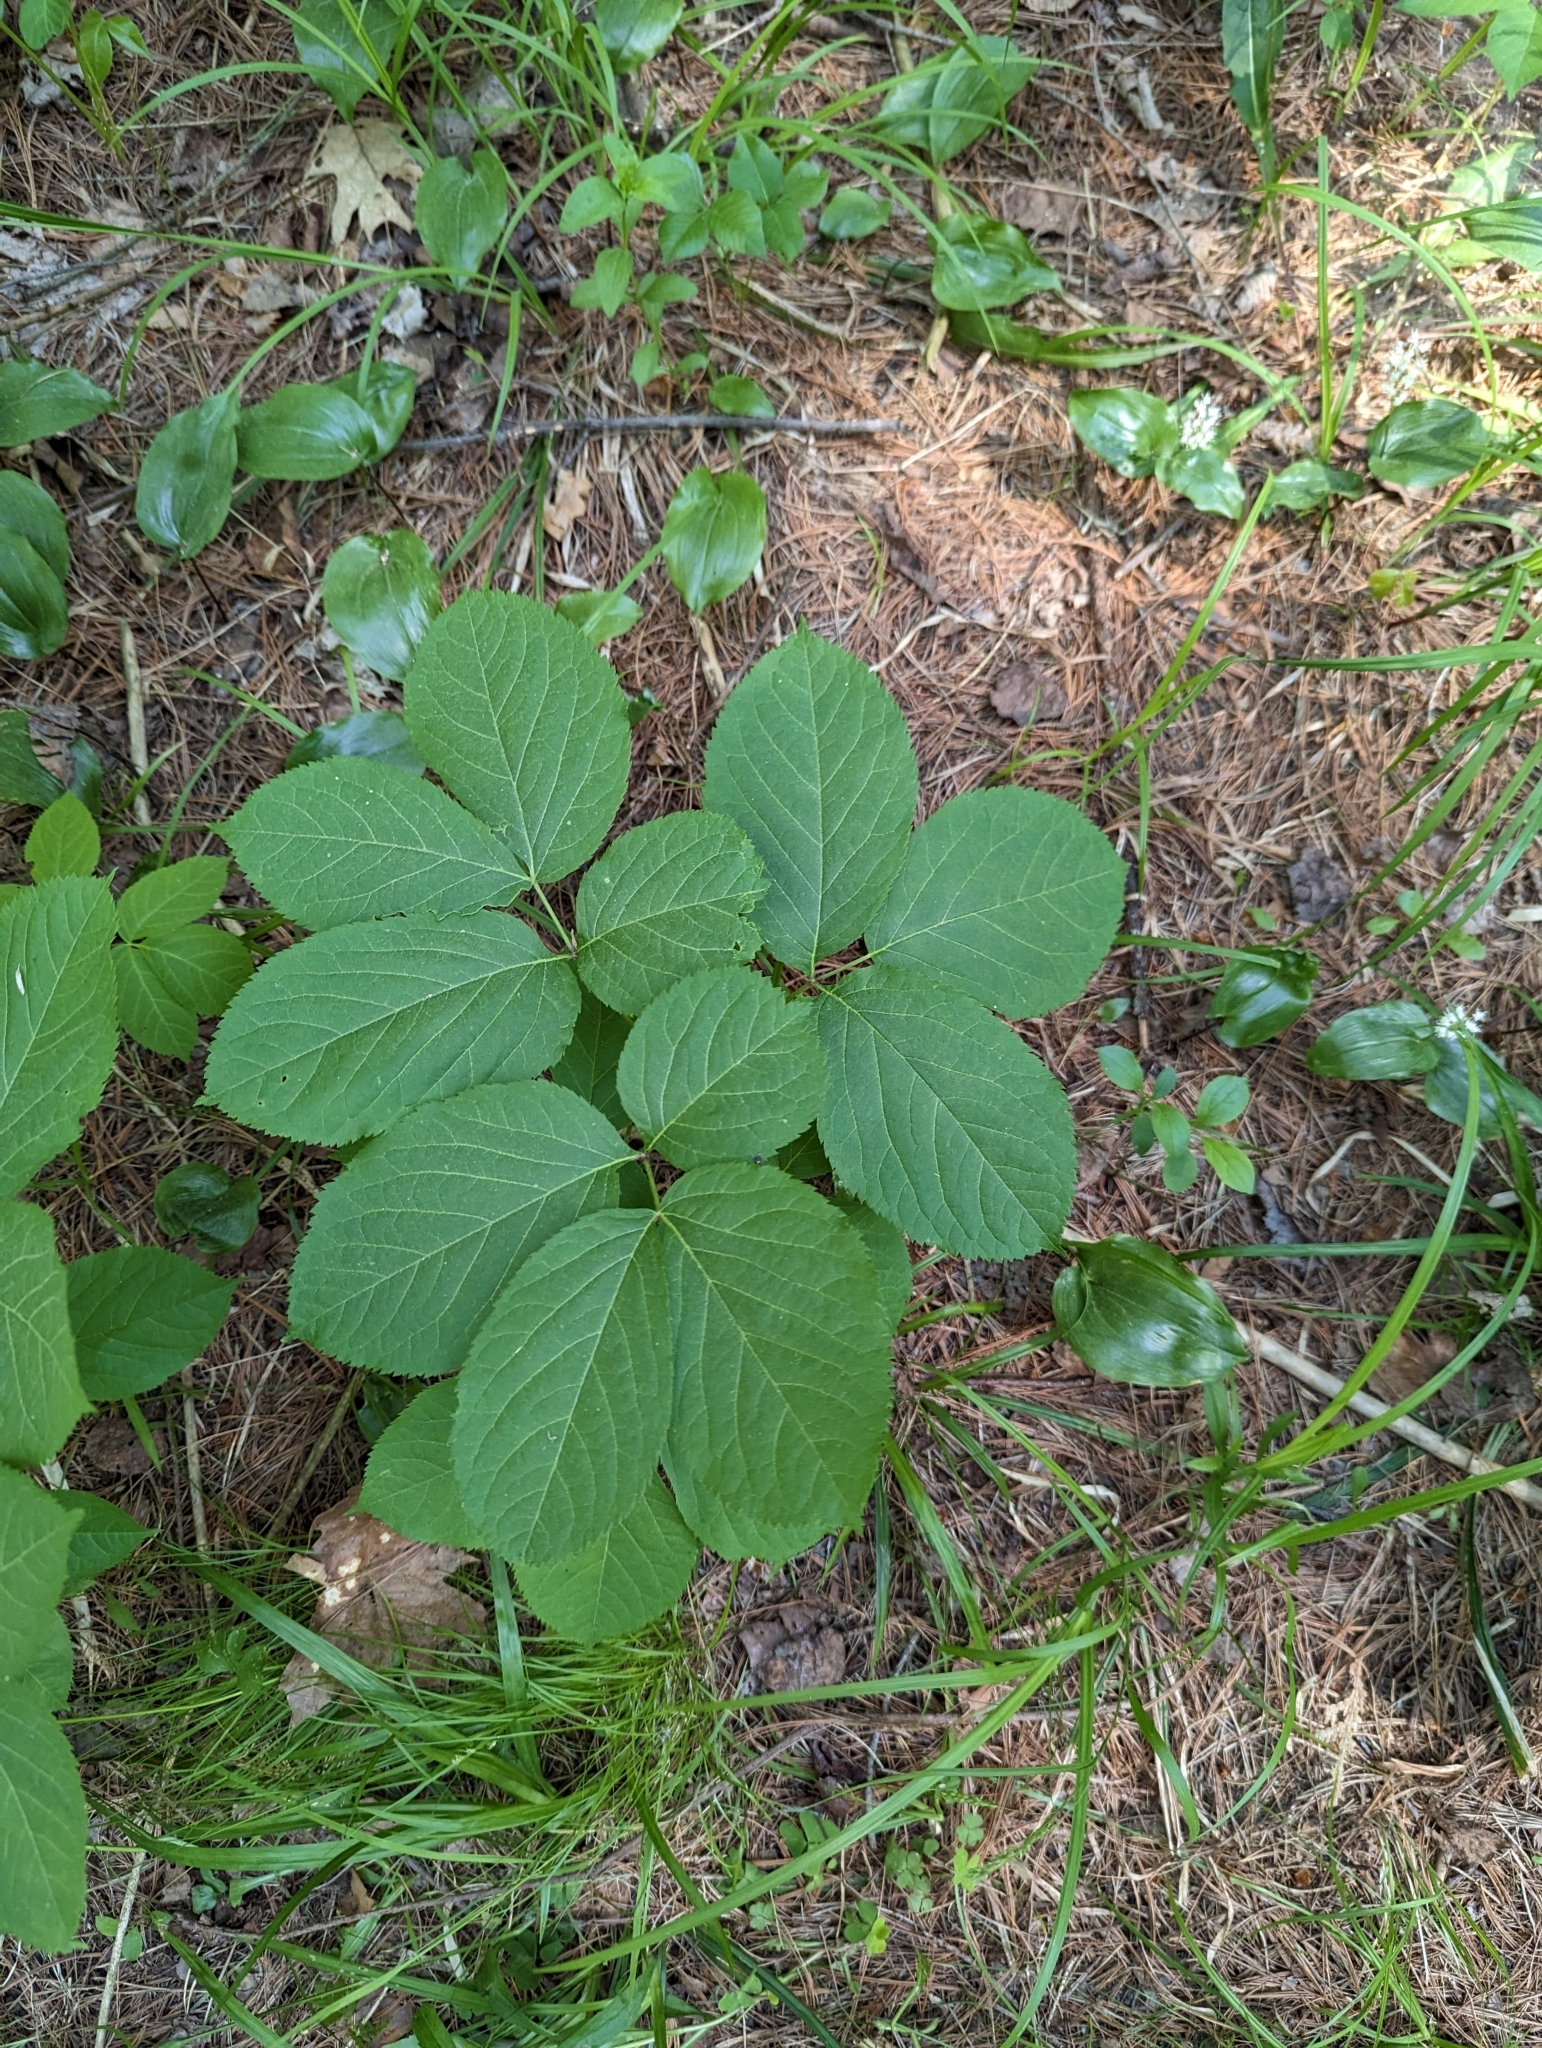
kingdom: Plantae
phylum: Tracheophyta
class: Magnoliopsida
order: Apiales
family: Araliaceae
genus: Aralia
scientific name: Aralia nudicaulis
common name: Wild sarsaparilla
